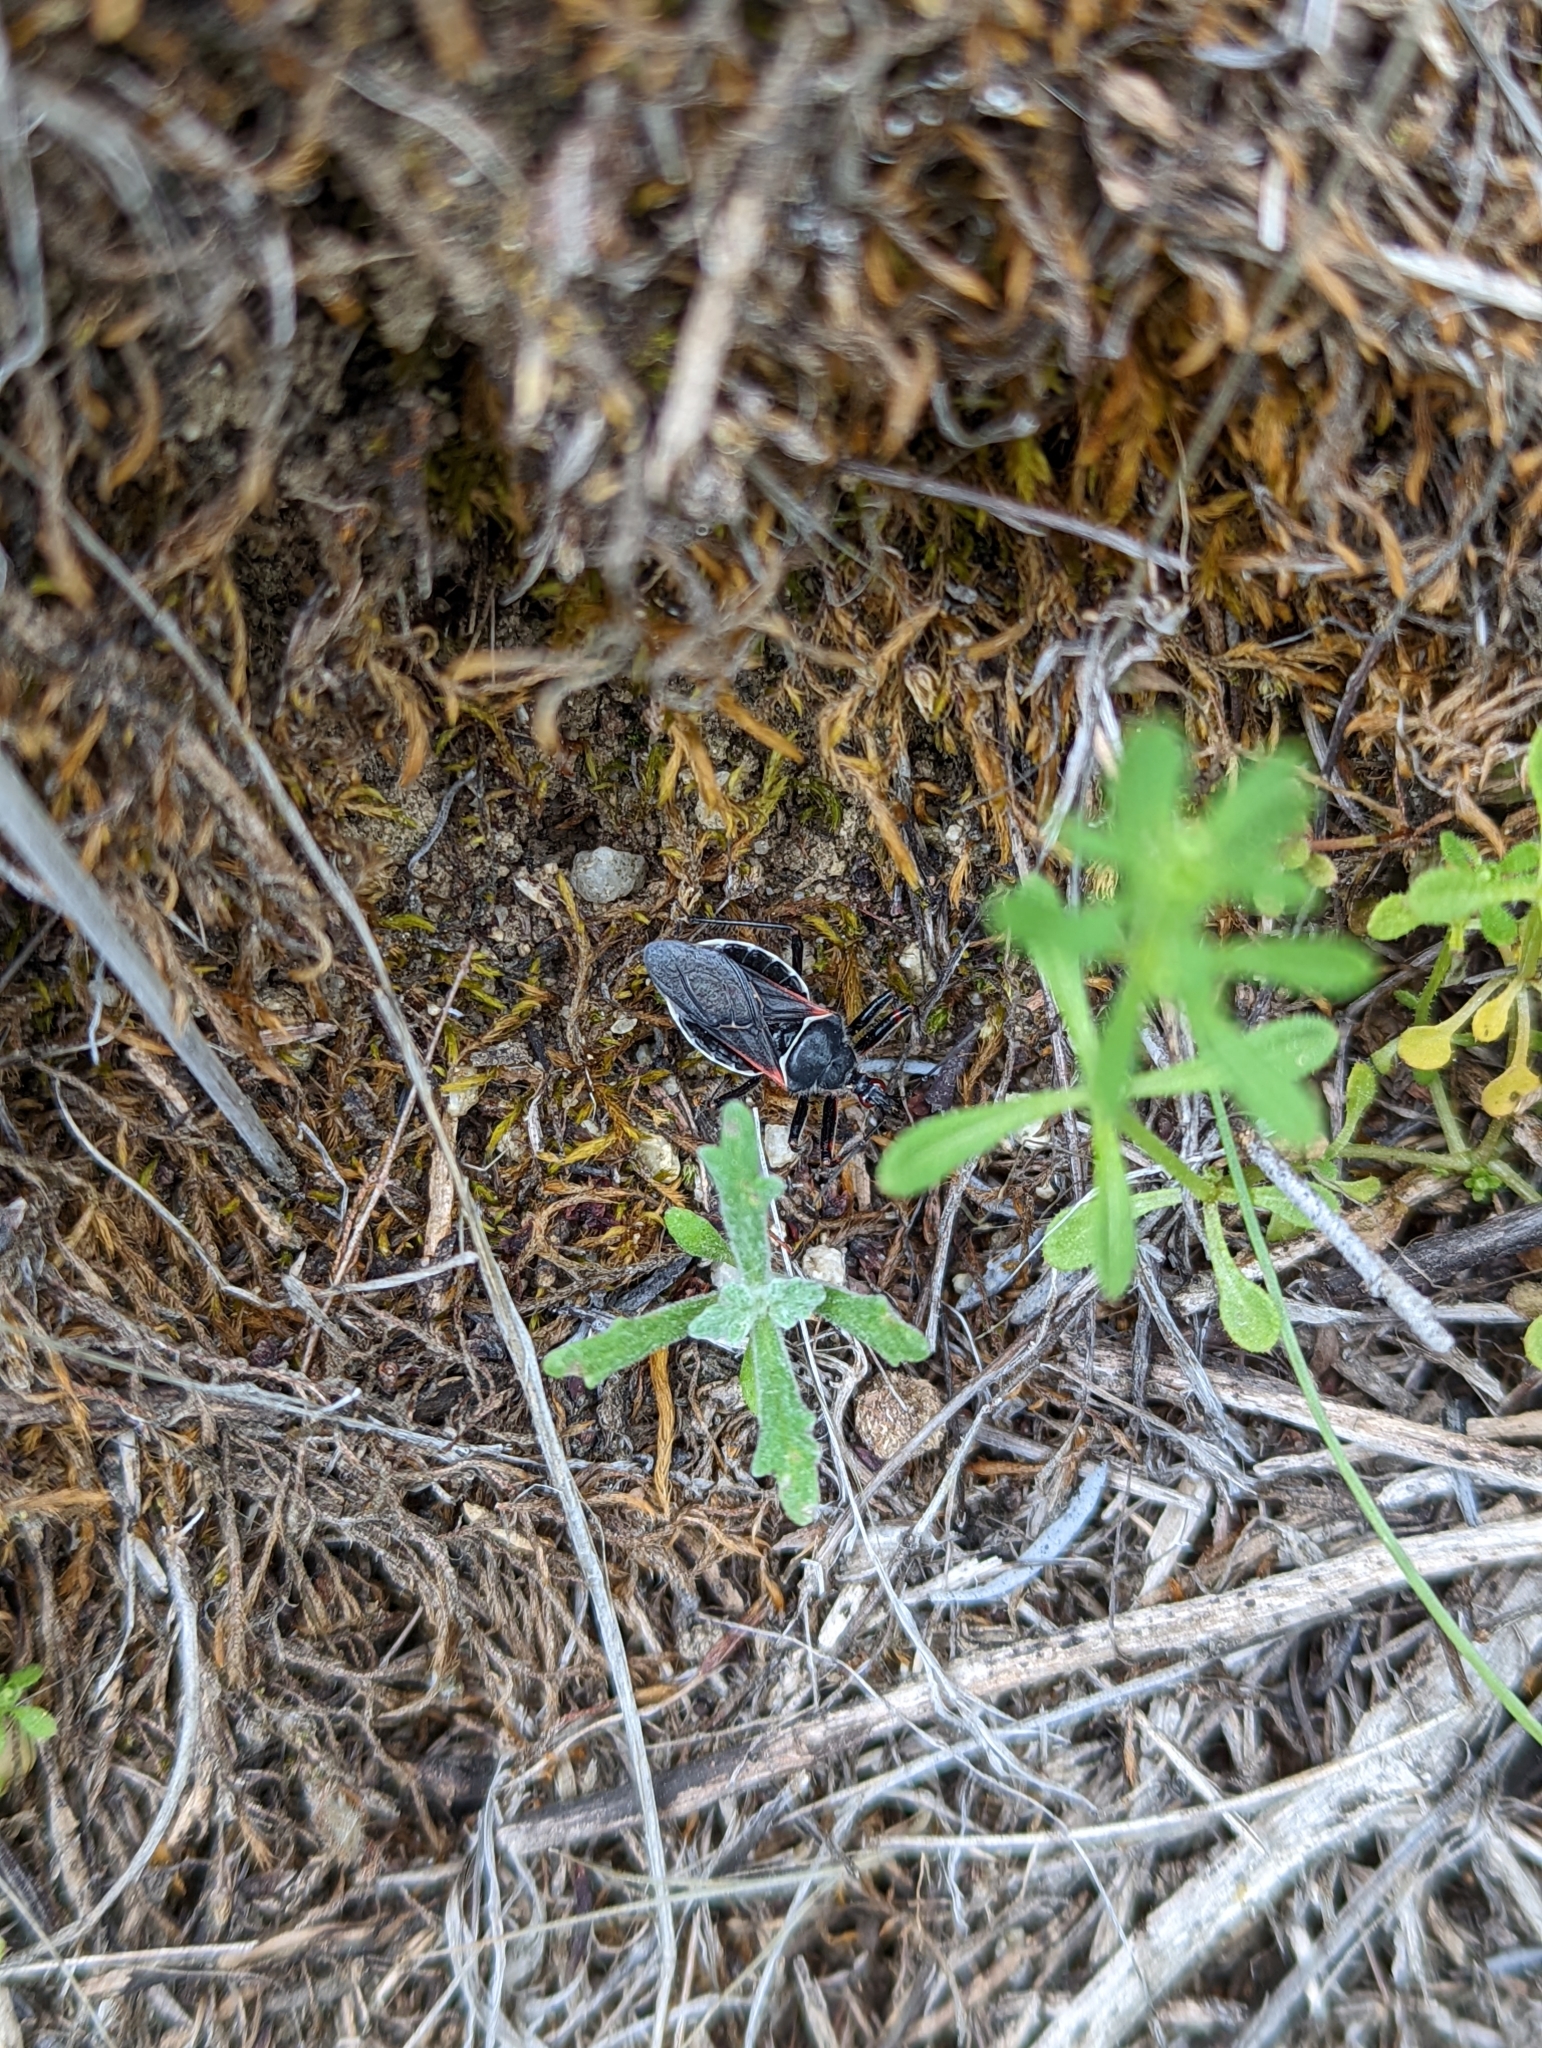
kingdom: Animalia
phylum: Arthropoda
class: Insecta
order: Hemiptera
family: Reduviidae
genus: Apiomerus
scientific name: Apiomerus californicus
